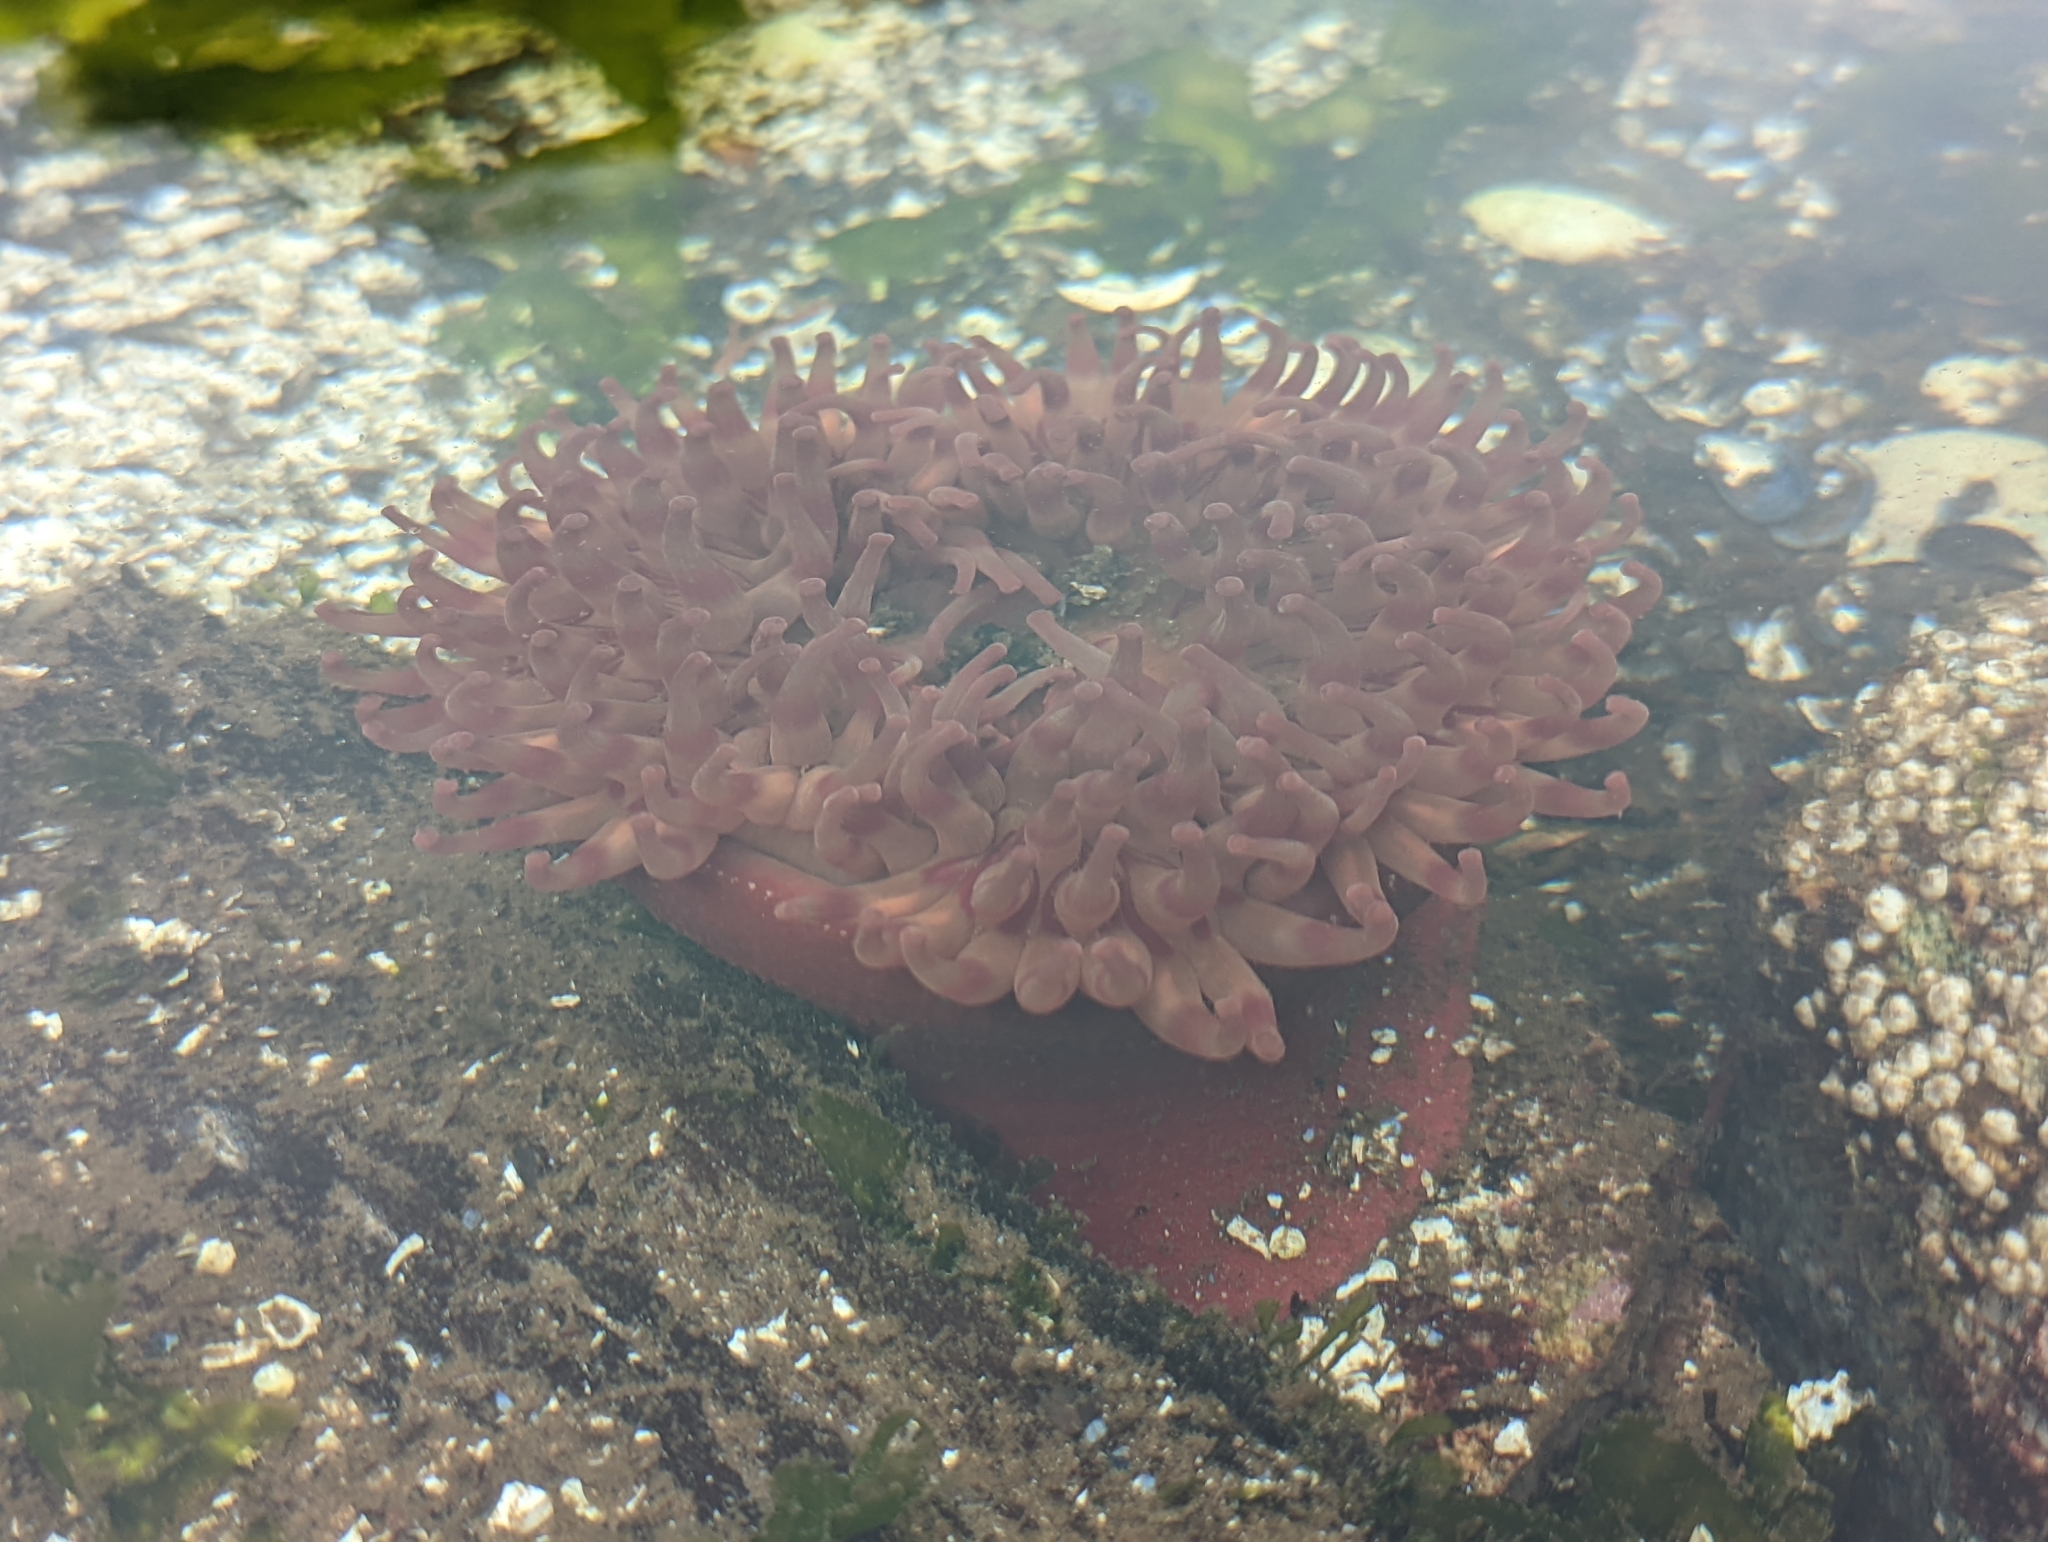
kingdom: Animalia
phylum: Cnidaria
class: Anthozoa
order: Actiniaria
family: Actiniidae
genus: Urticina
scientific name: Urticina grebelnyi
